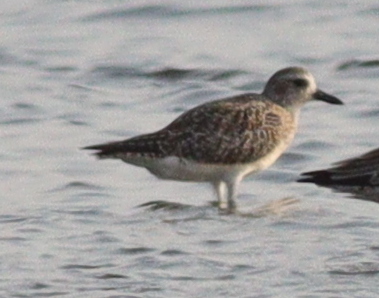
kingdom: Animalia
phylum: Chordata
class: Aves
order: Charadriiformes
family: Charadriidae
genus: Pluvialis
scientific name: Pluvialis squatarola
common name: Grey plover
